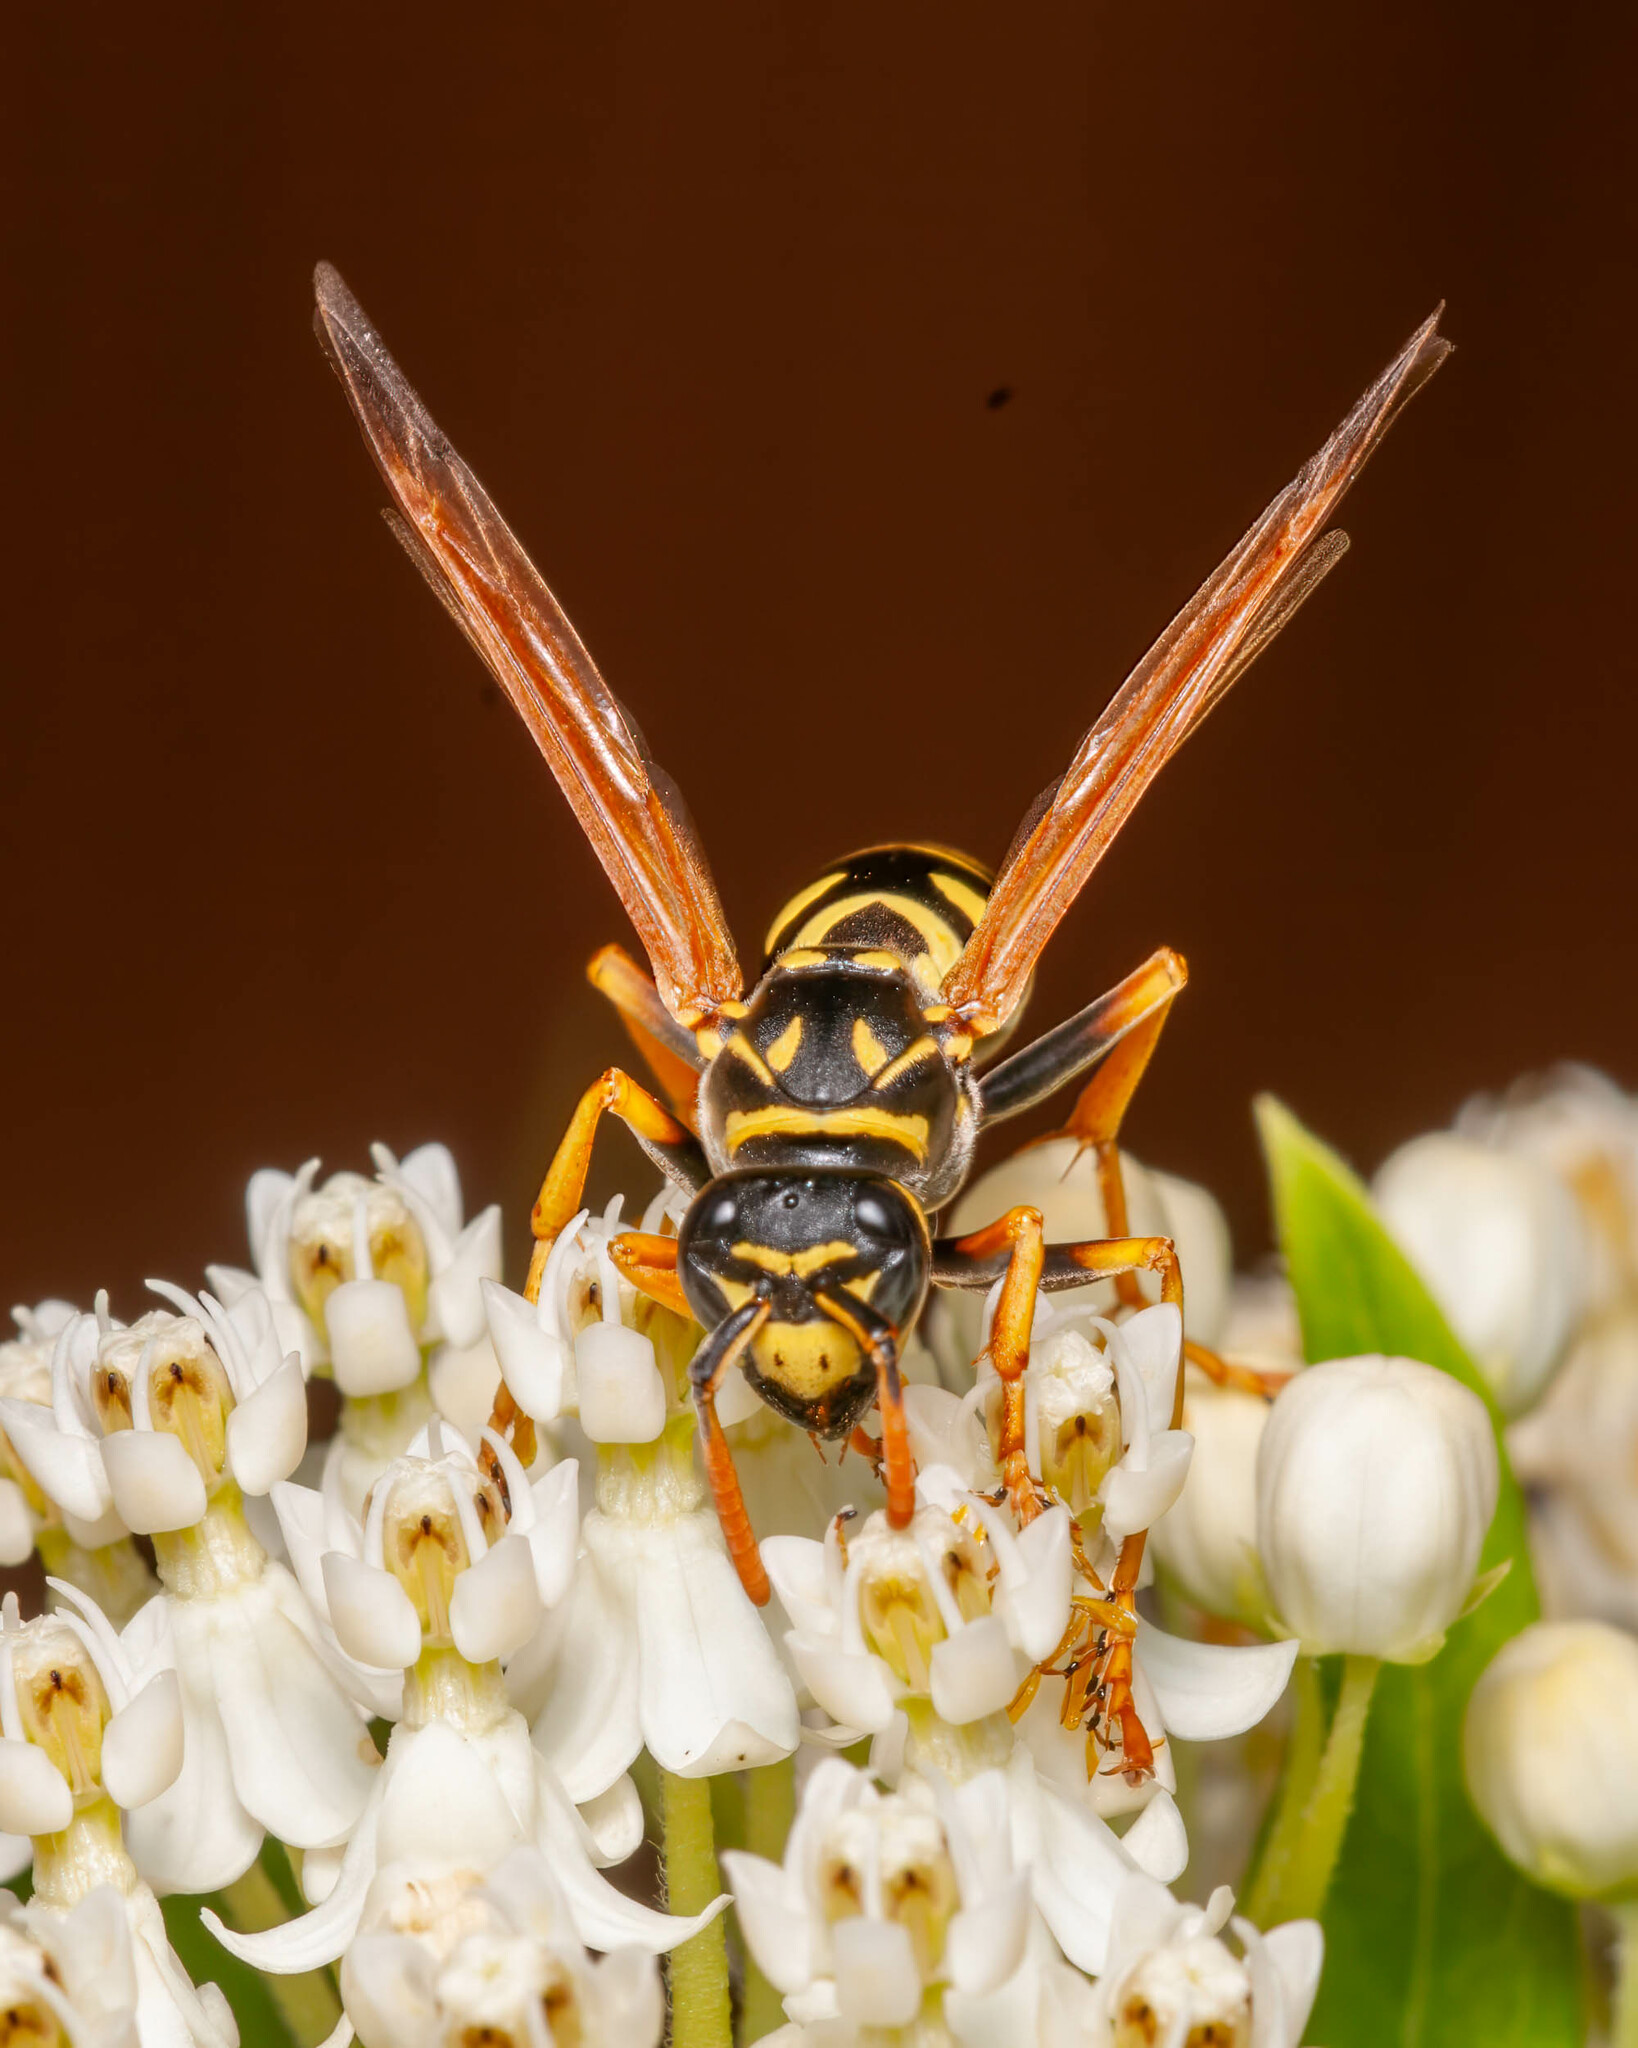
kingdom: Animalia
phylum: Arthropoda
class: Insecta
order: Hymenoptera
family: Eumenidae
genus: Polistes
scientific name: Polistes dominula
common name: Paper wasp
